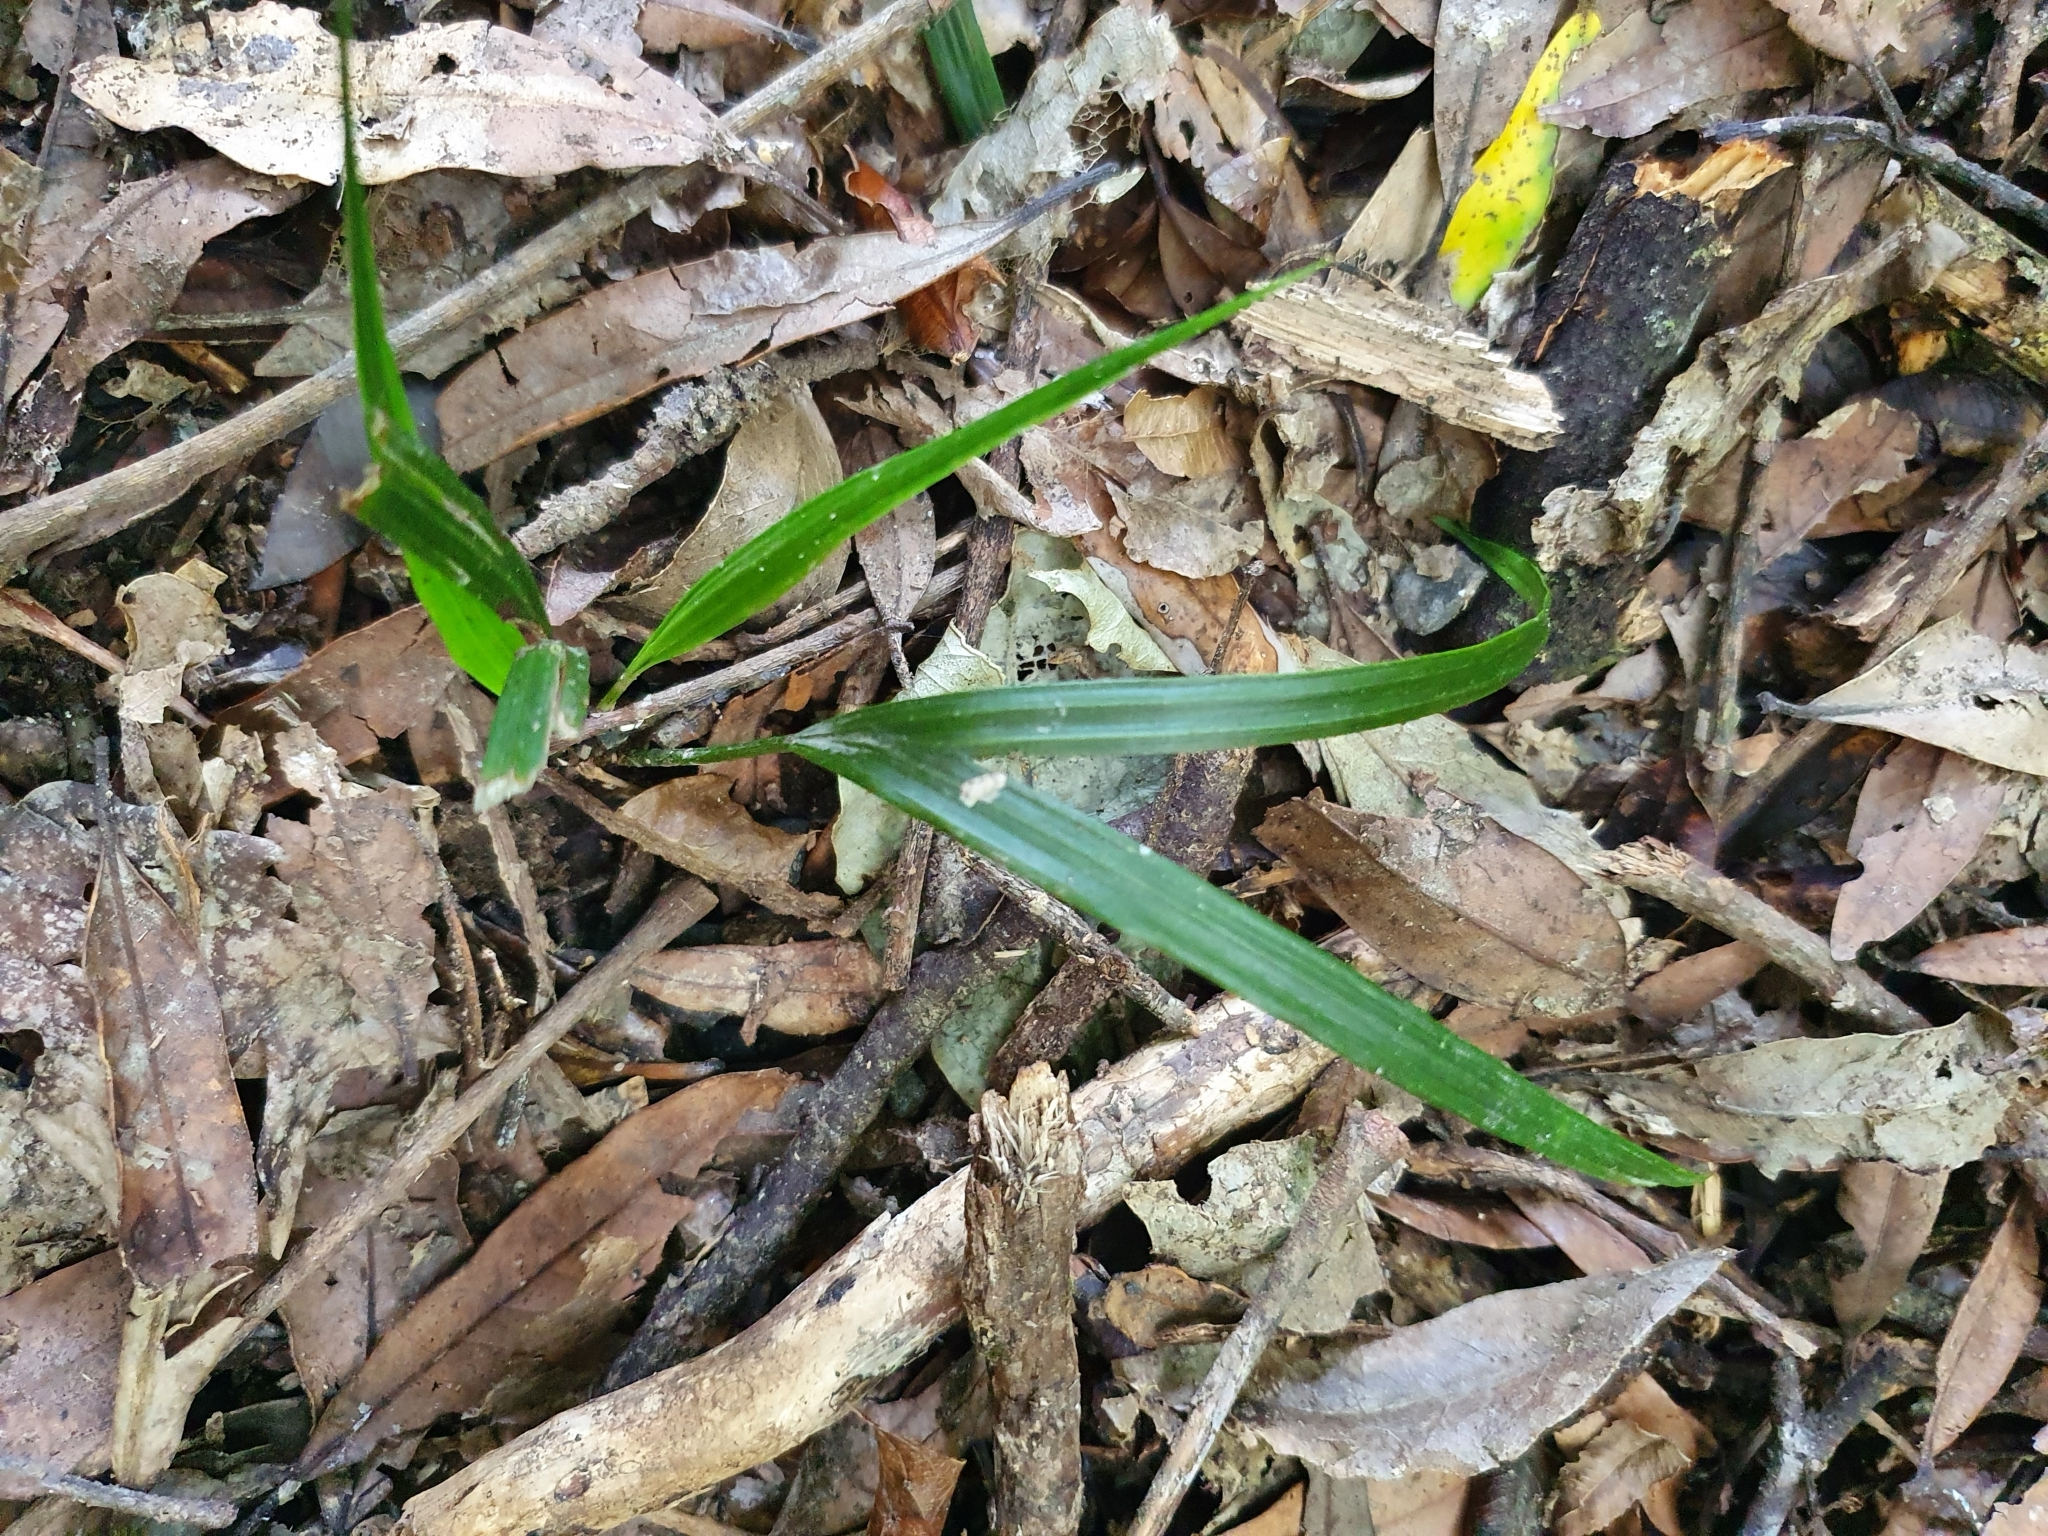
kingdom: Plantae
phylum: Tracheophyta
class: Liliopsida
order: Arecales
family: Arecaceae
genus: Rhopalostylis
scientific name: Rhopalostylis sapida
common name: Feather-duster palm
